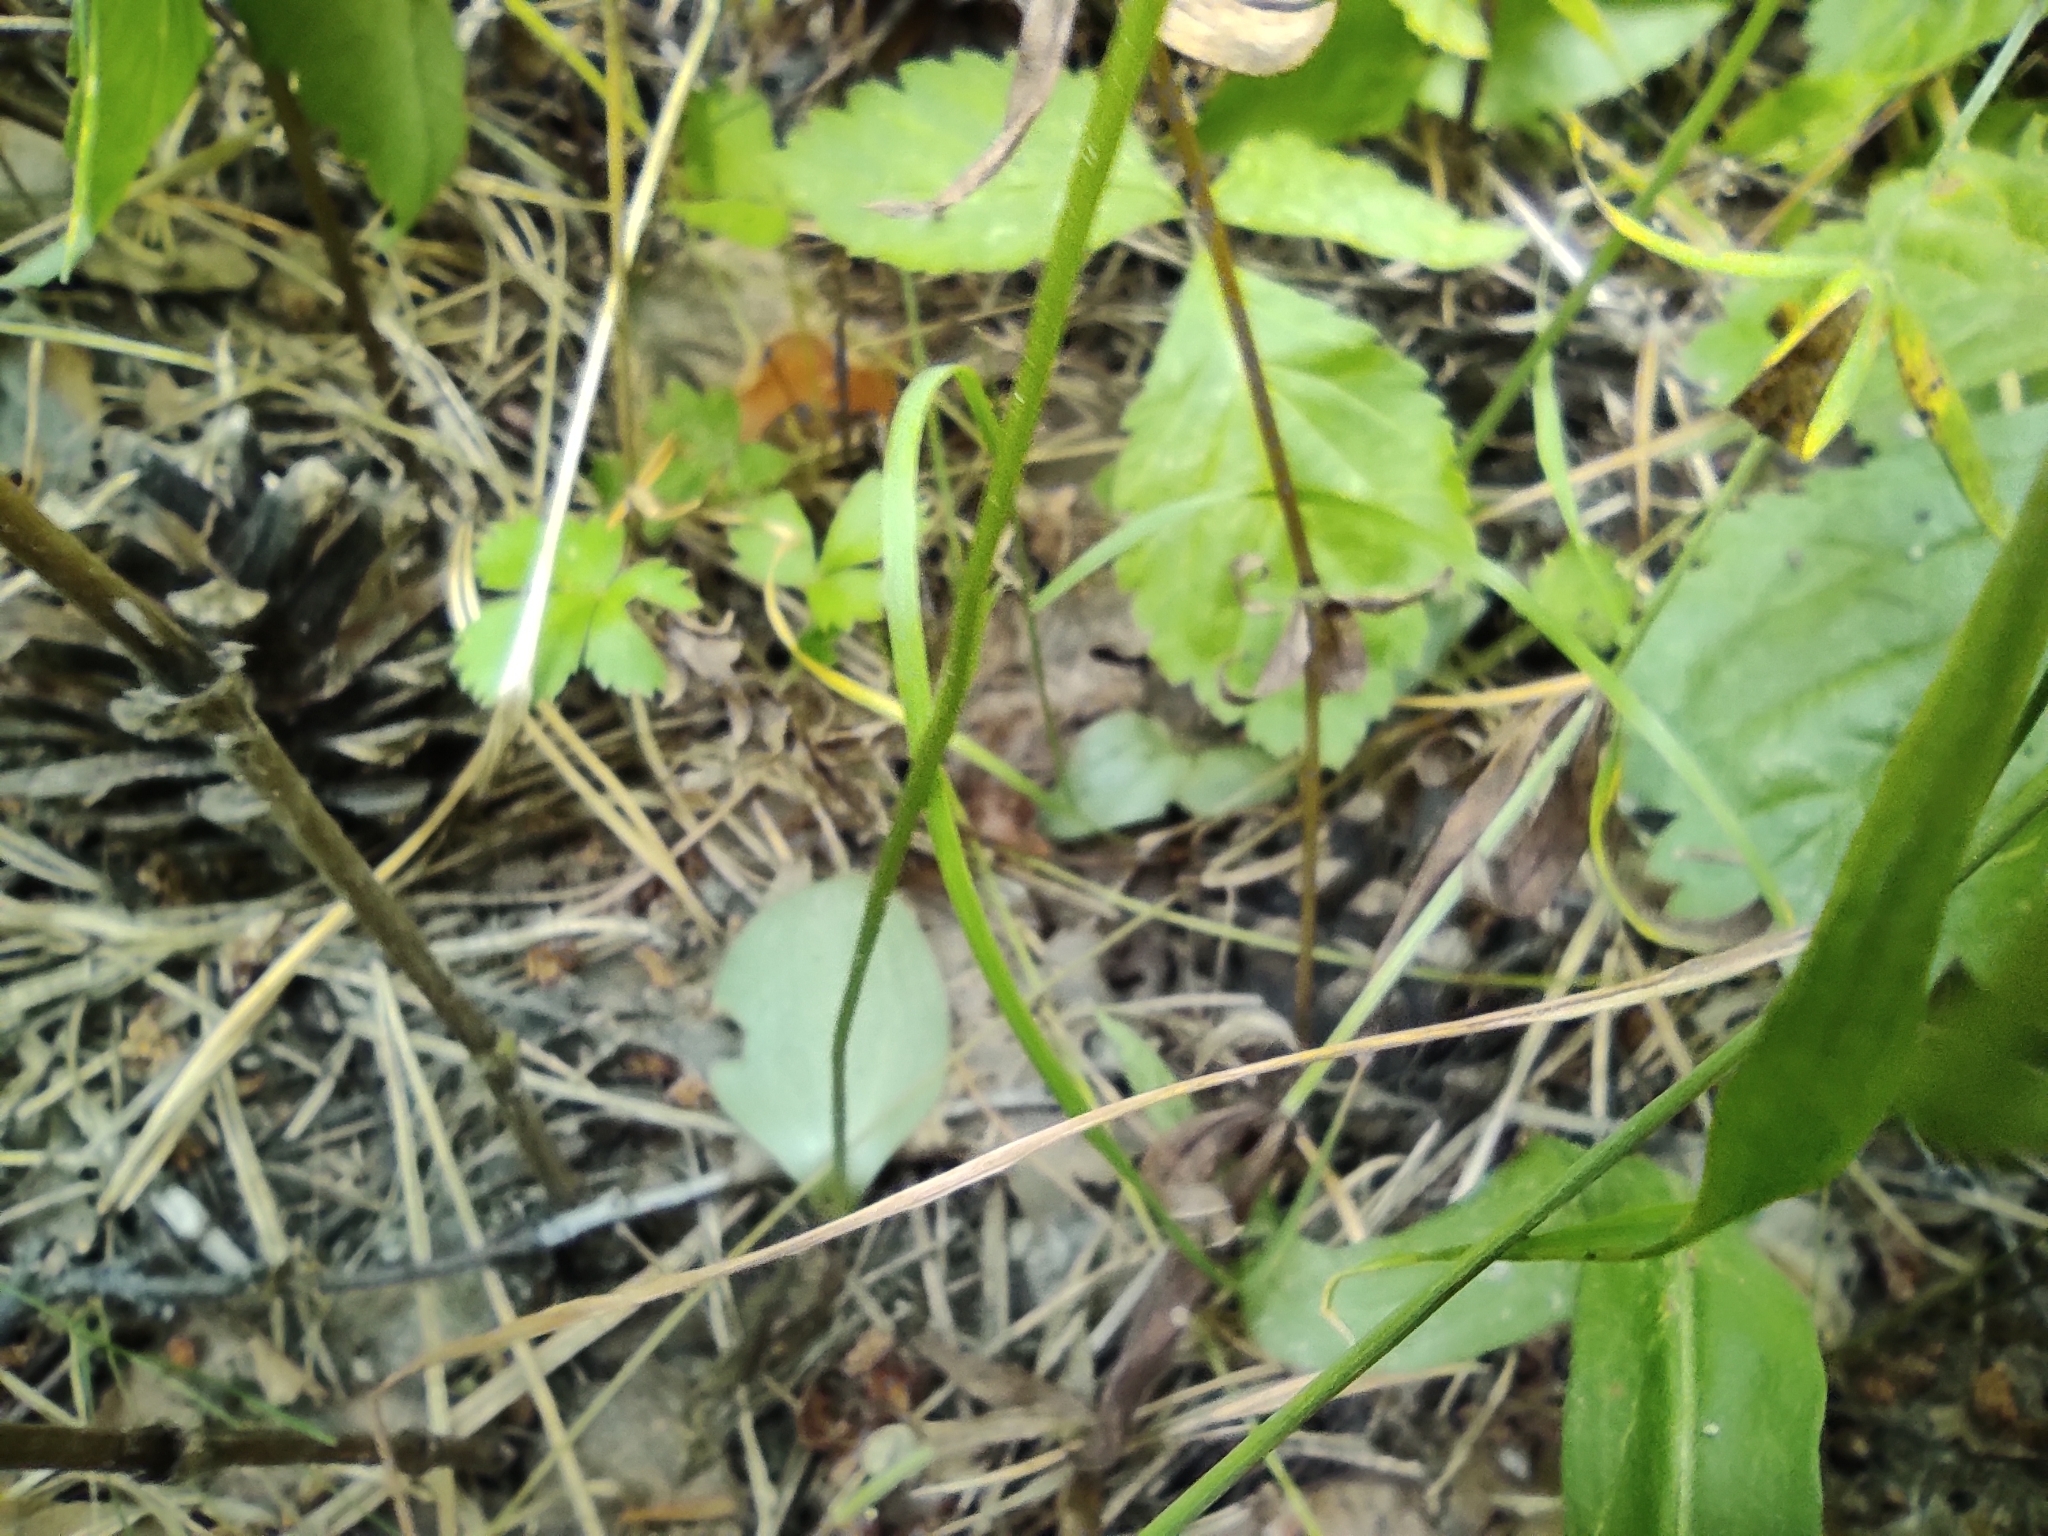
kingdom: Plantae
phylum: Tracheophyta
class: Liliopsida
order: Asparagales
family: Orchidaceae
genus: Hemipilia
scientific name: Hemipilia cucullata
